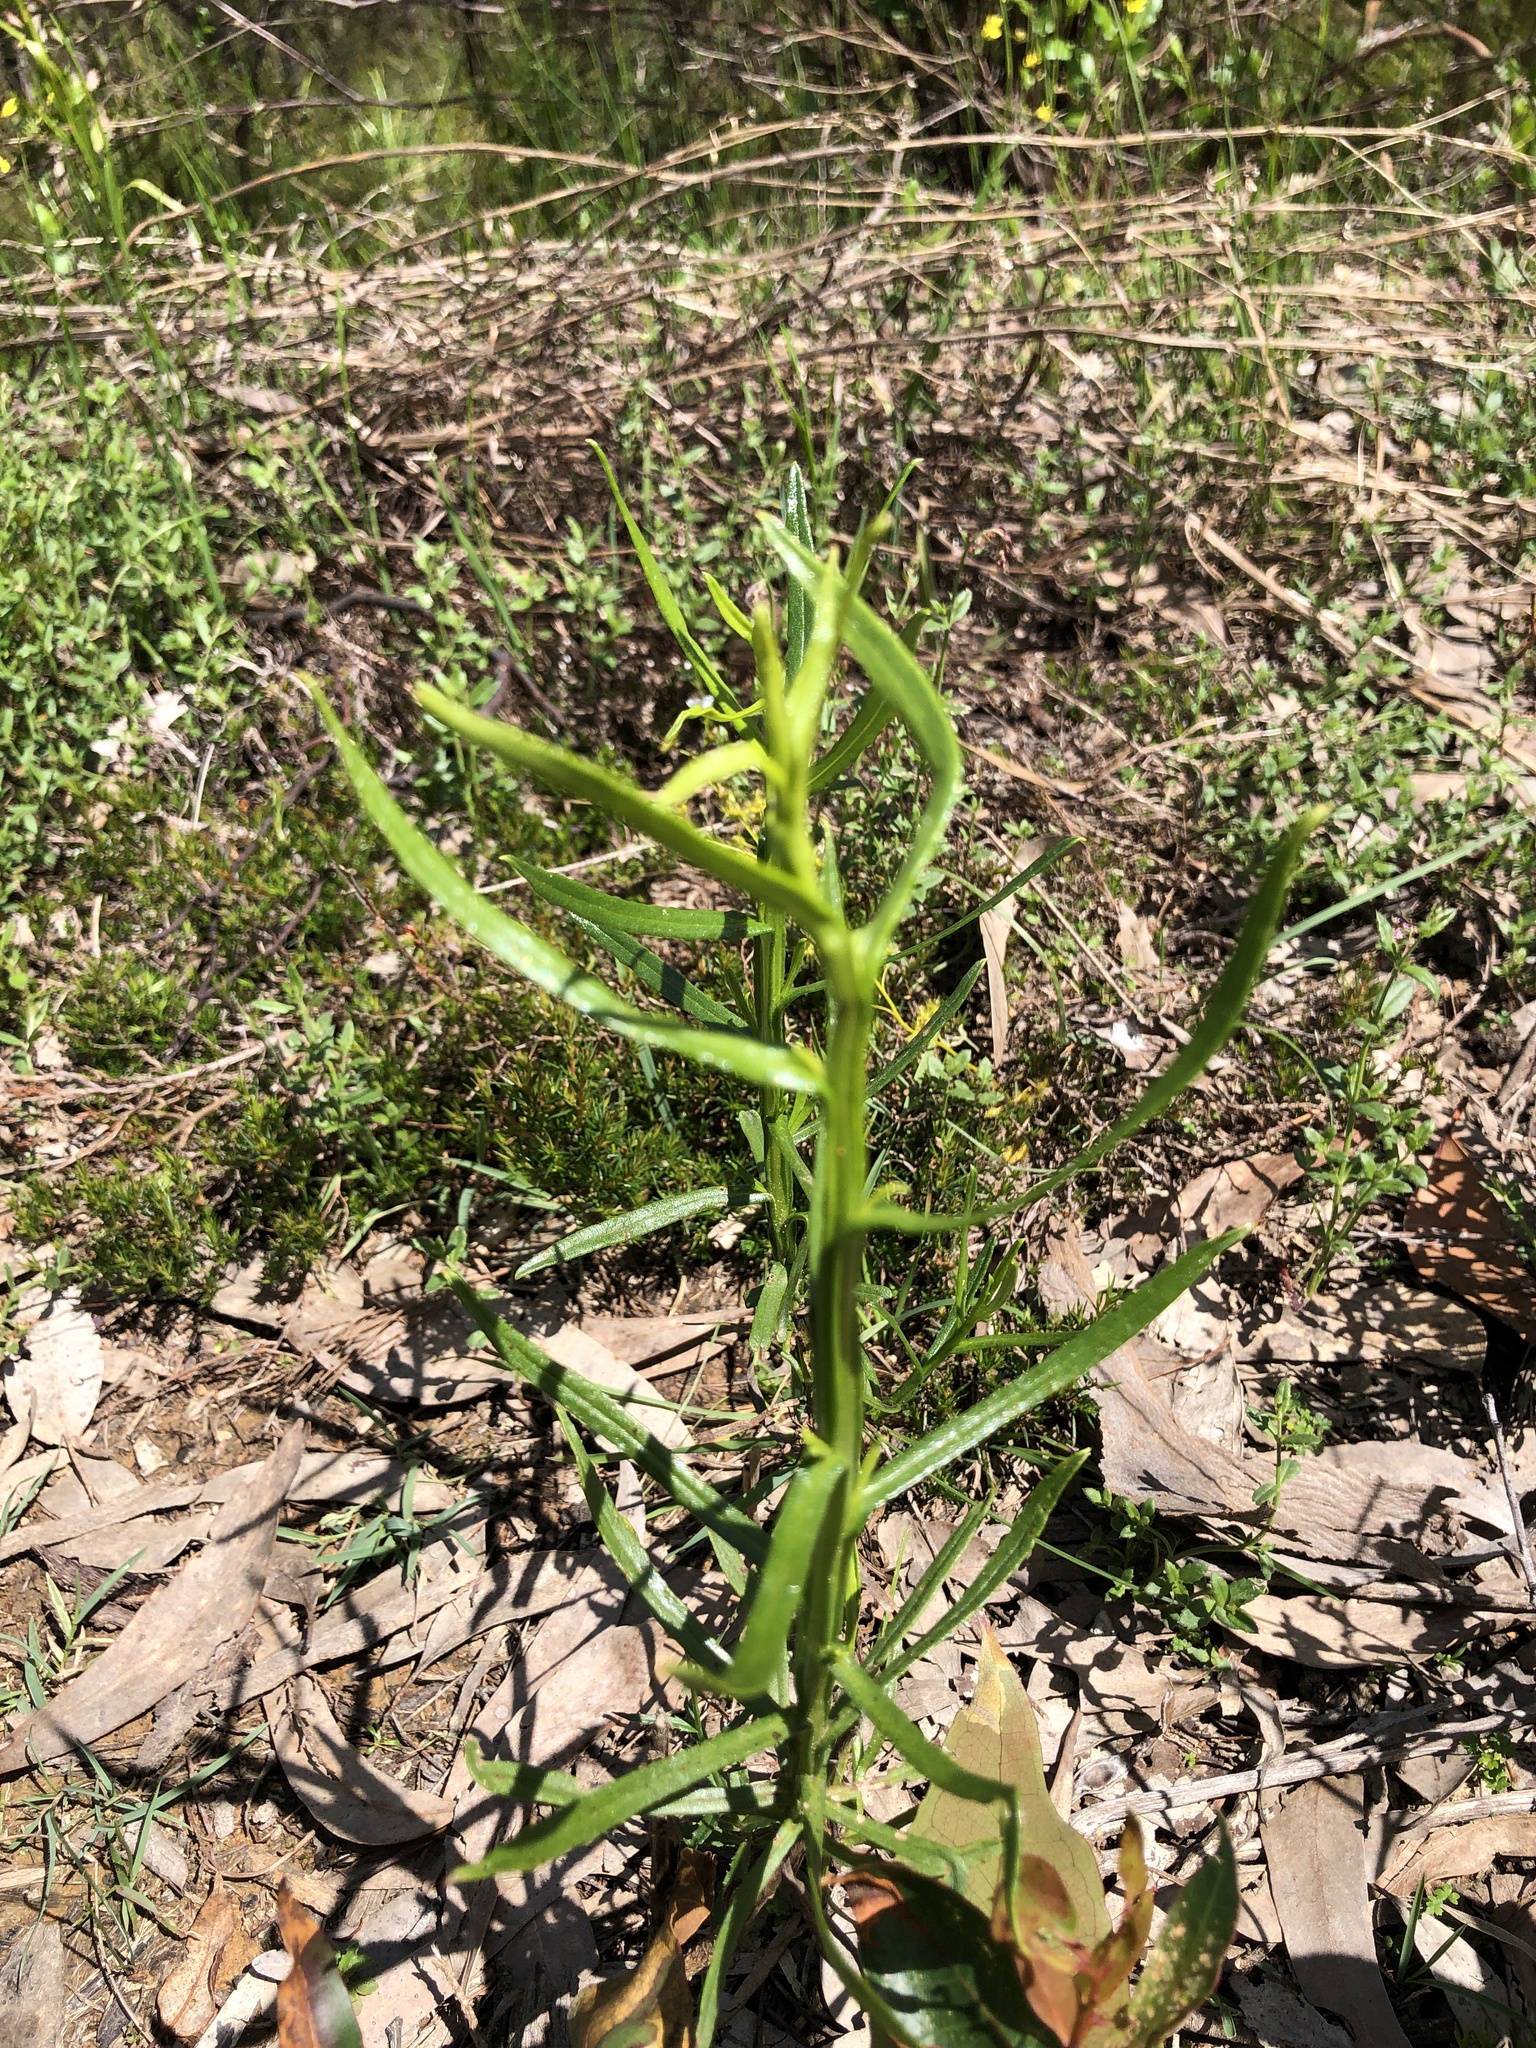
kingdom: Plantae
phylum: Tracheophyta
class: Magnoliopsida
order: Asterales
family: Asteraceae
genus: Ixodia
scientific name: Ixodia achillaeoides
